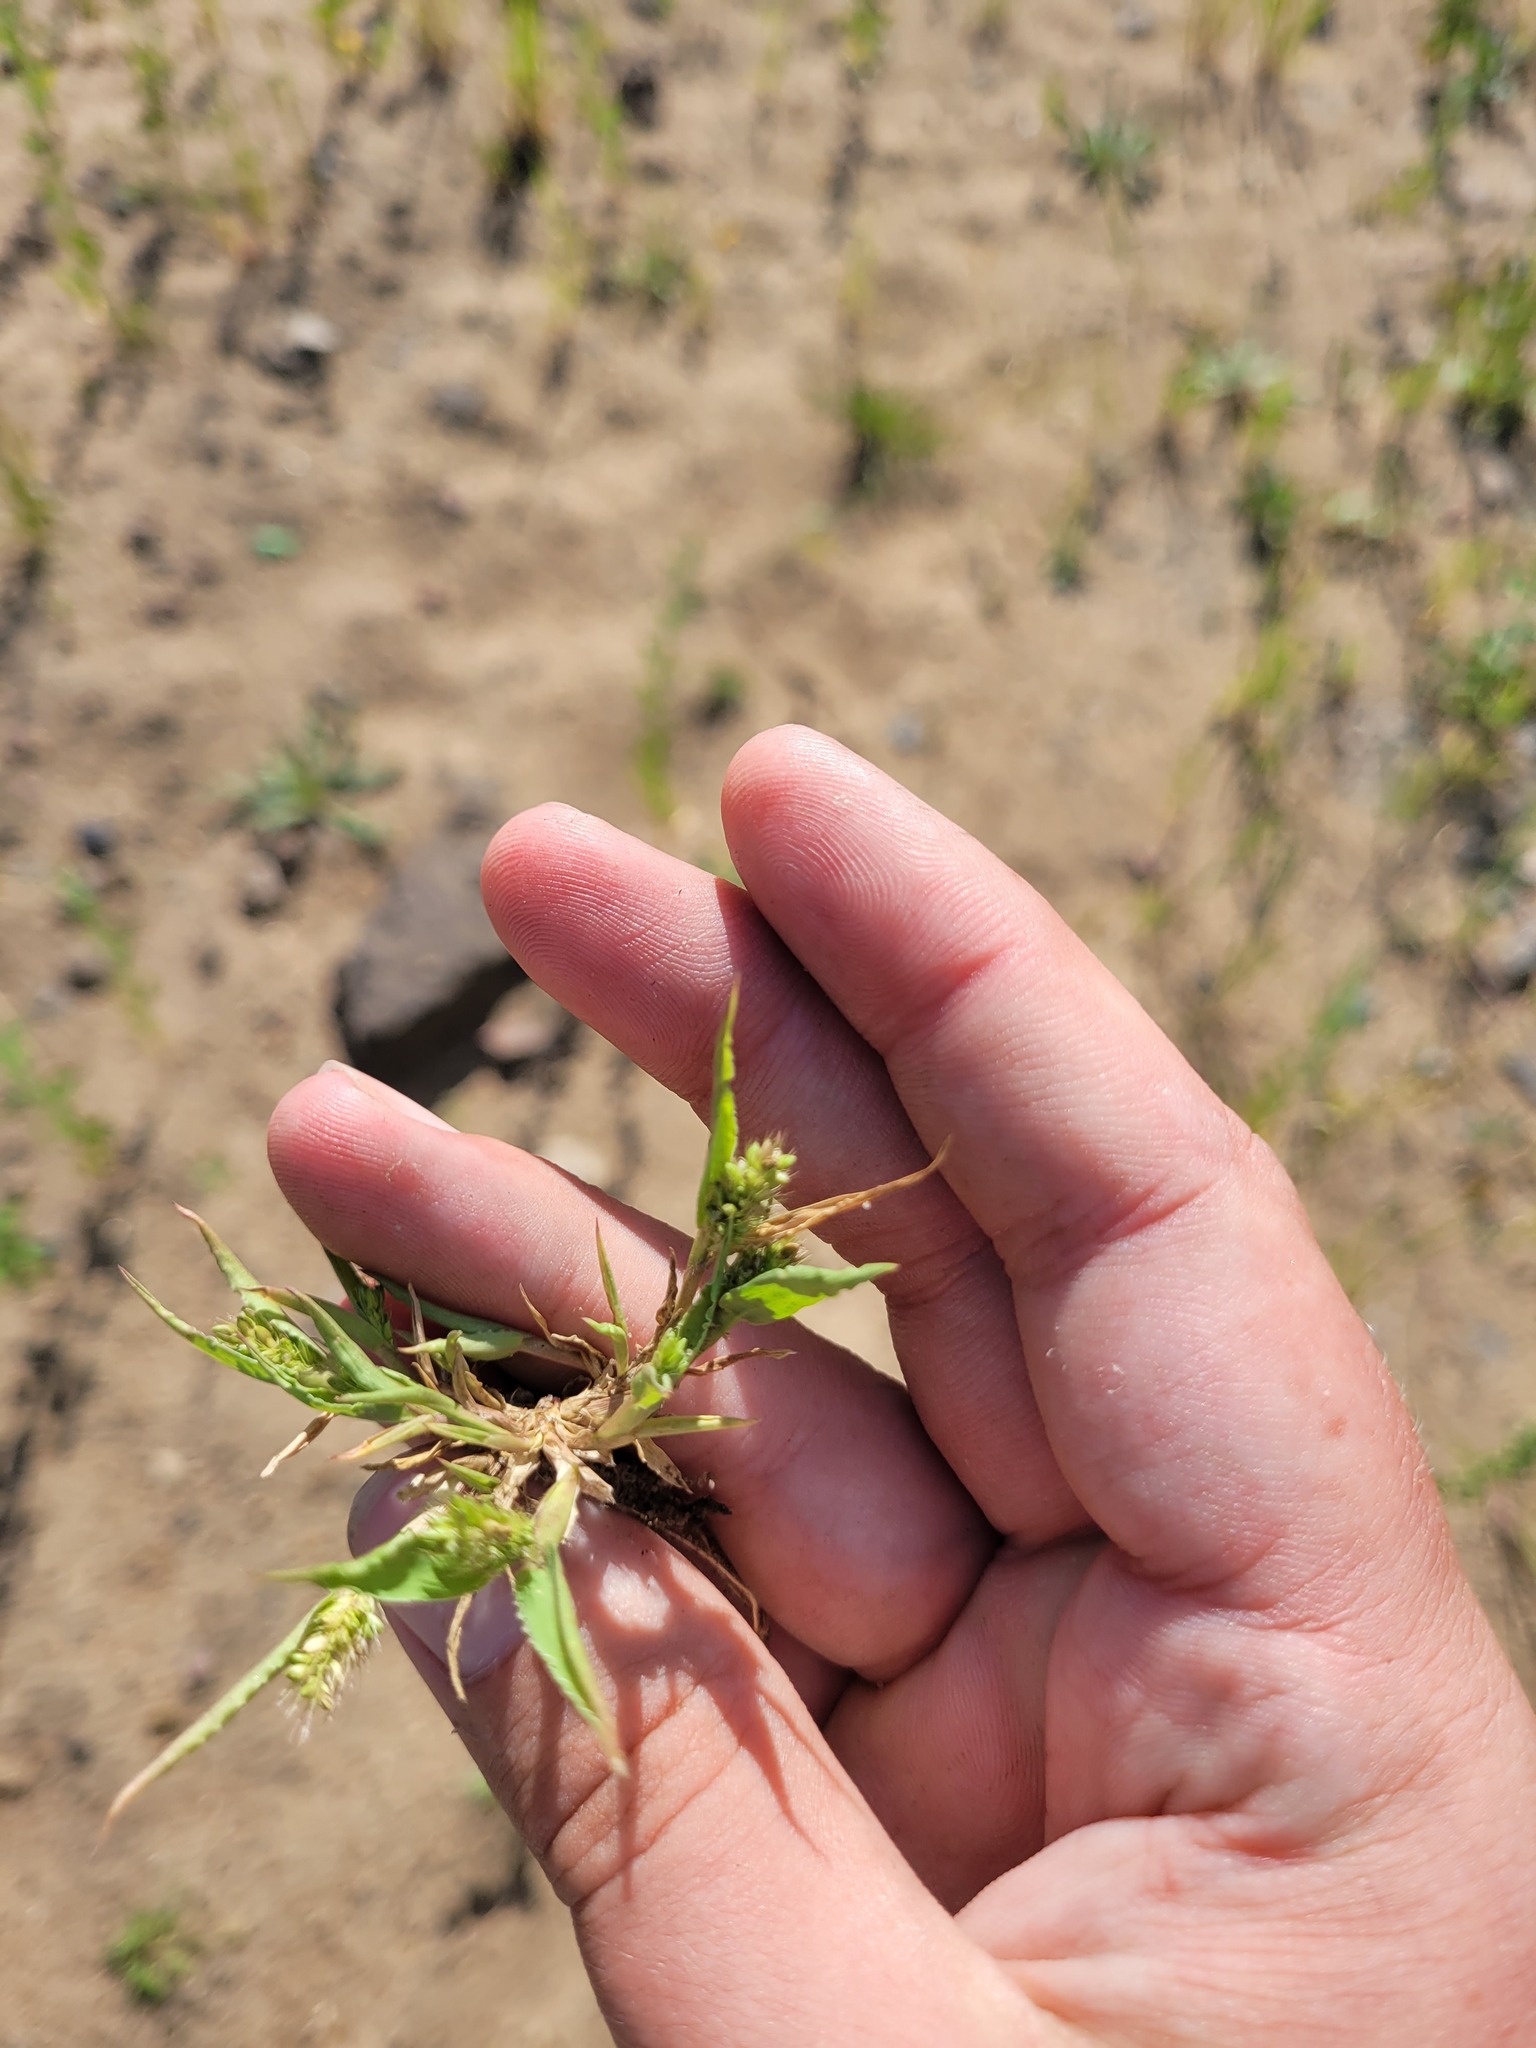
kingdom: Plantae
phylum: Tracheophyta
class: Liliopsida
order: Poales
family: Poaceae
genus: Setaria
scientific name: Setaria viridis
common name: Green bristlegrass
